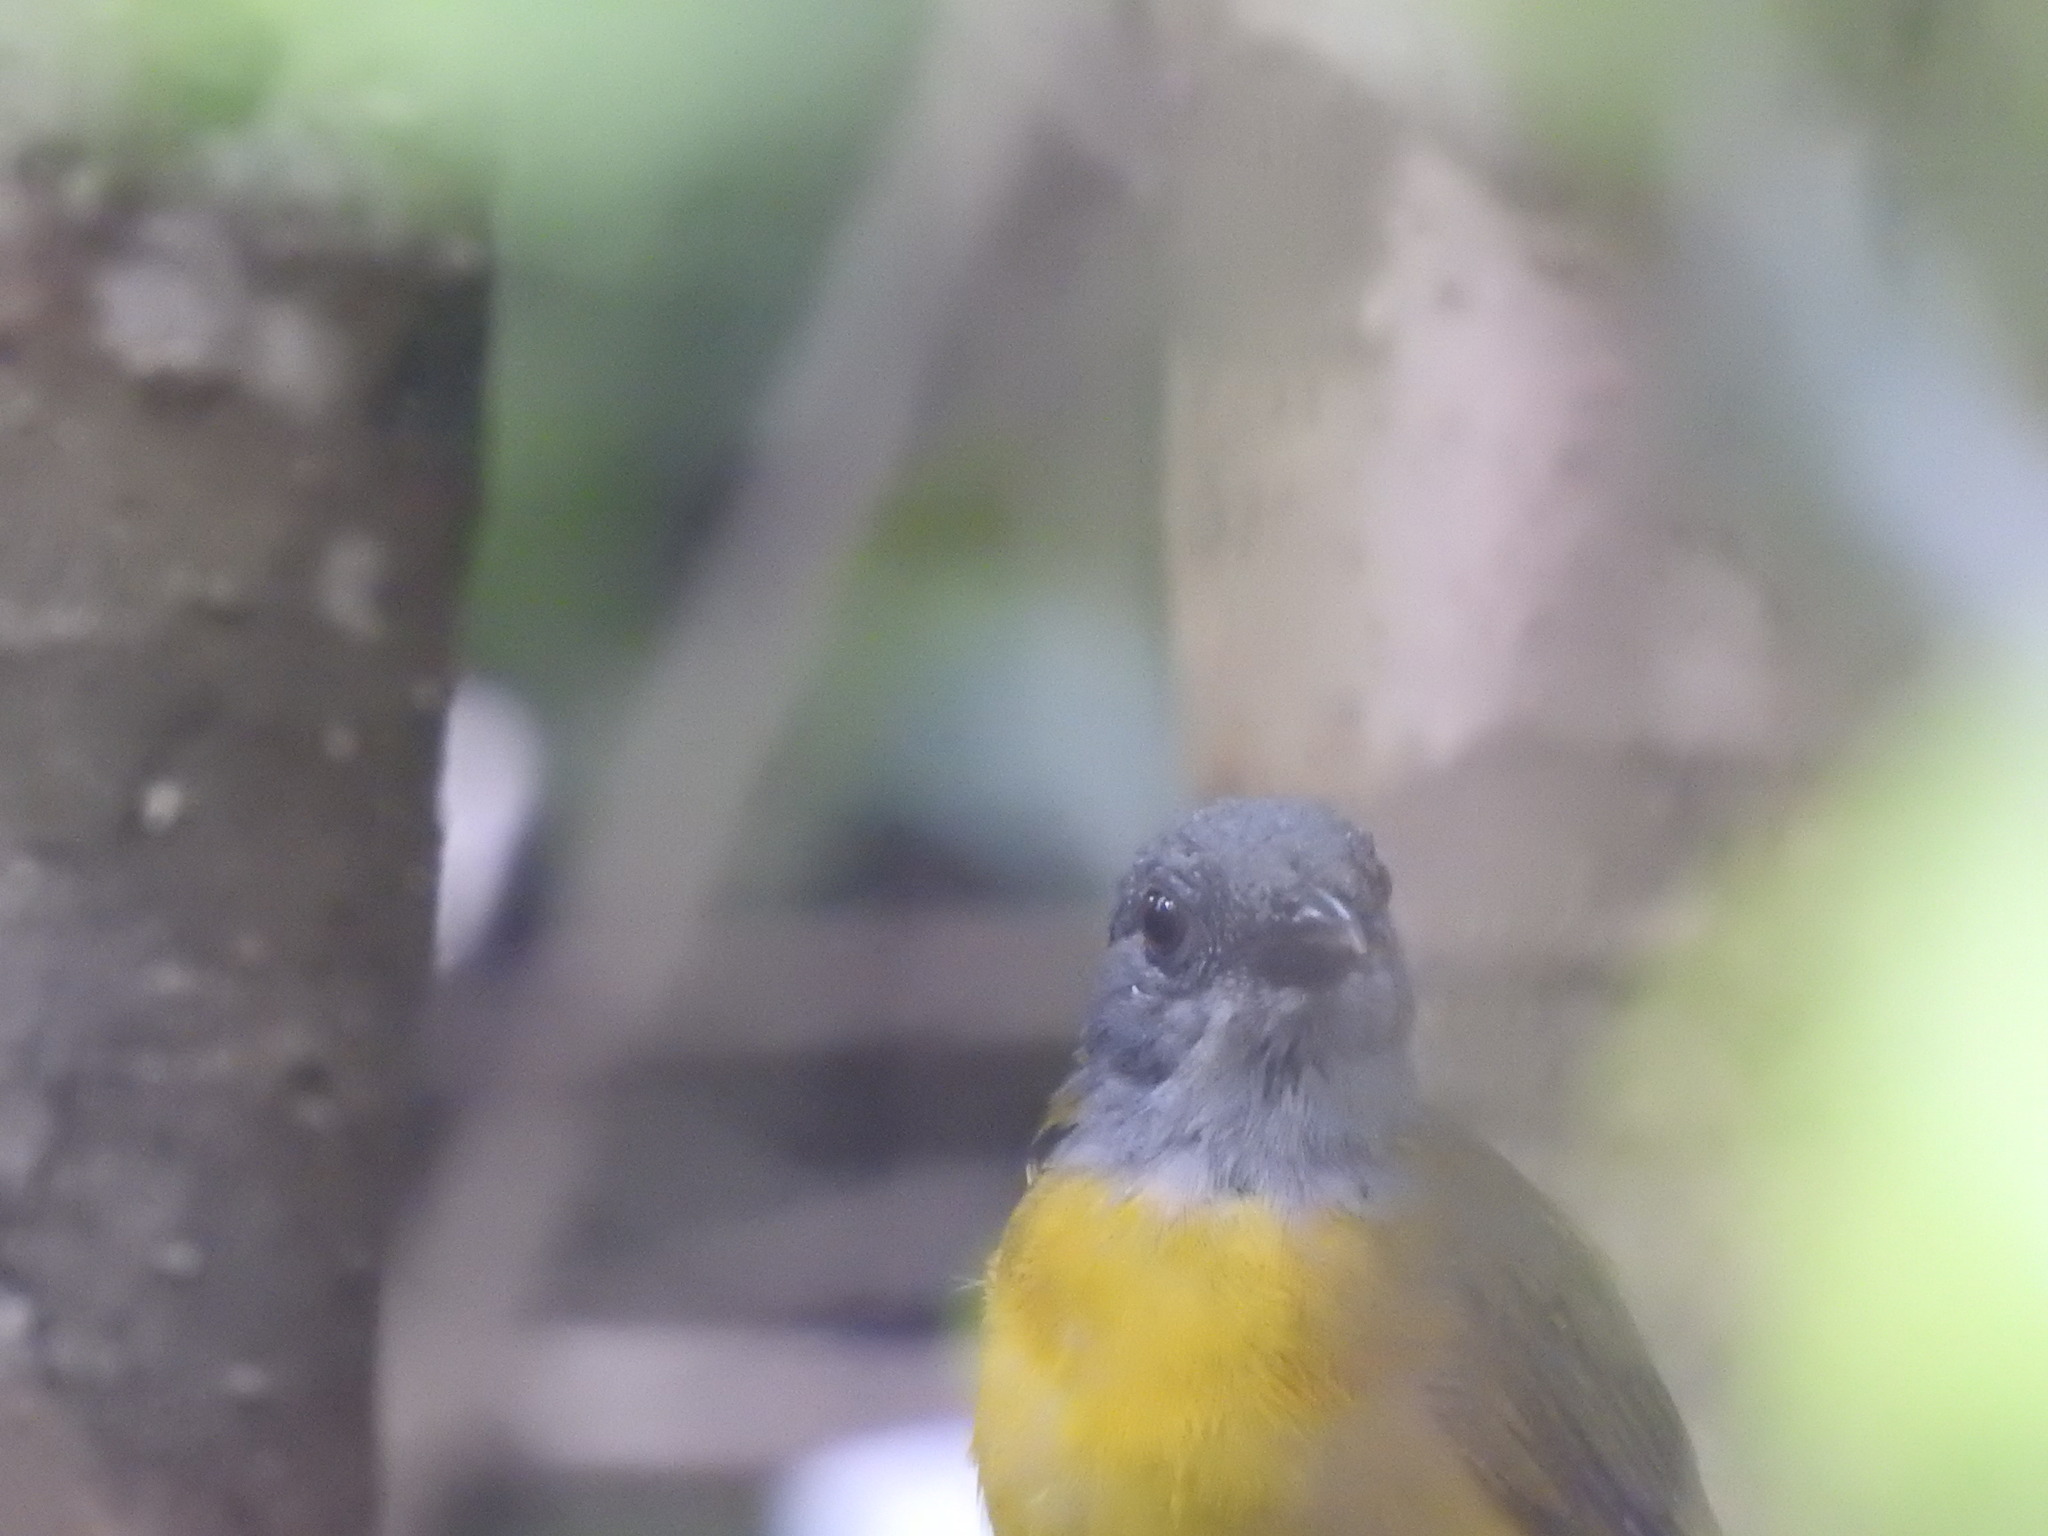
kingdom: Animalia
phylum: Chordata
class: Aves
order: Passeriformes
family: Thraupidae
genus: Eucometis
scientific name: Eucometis penicillata
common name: Grey-headed tanager
